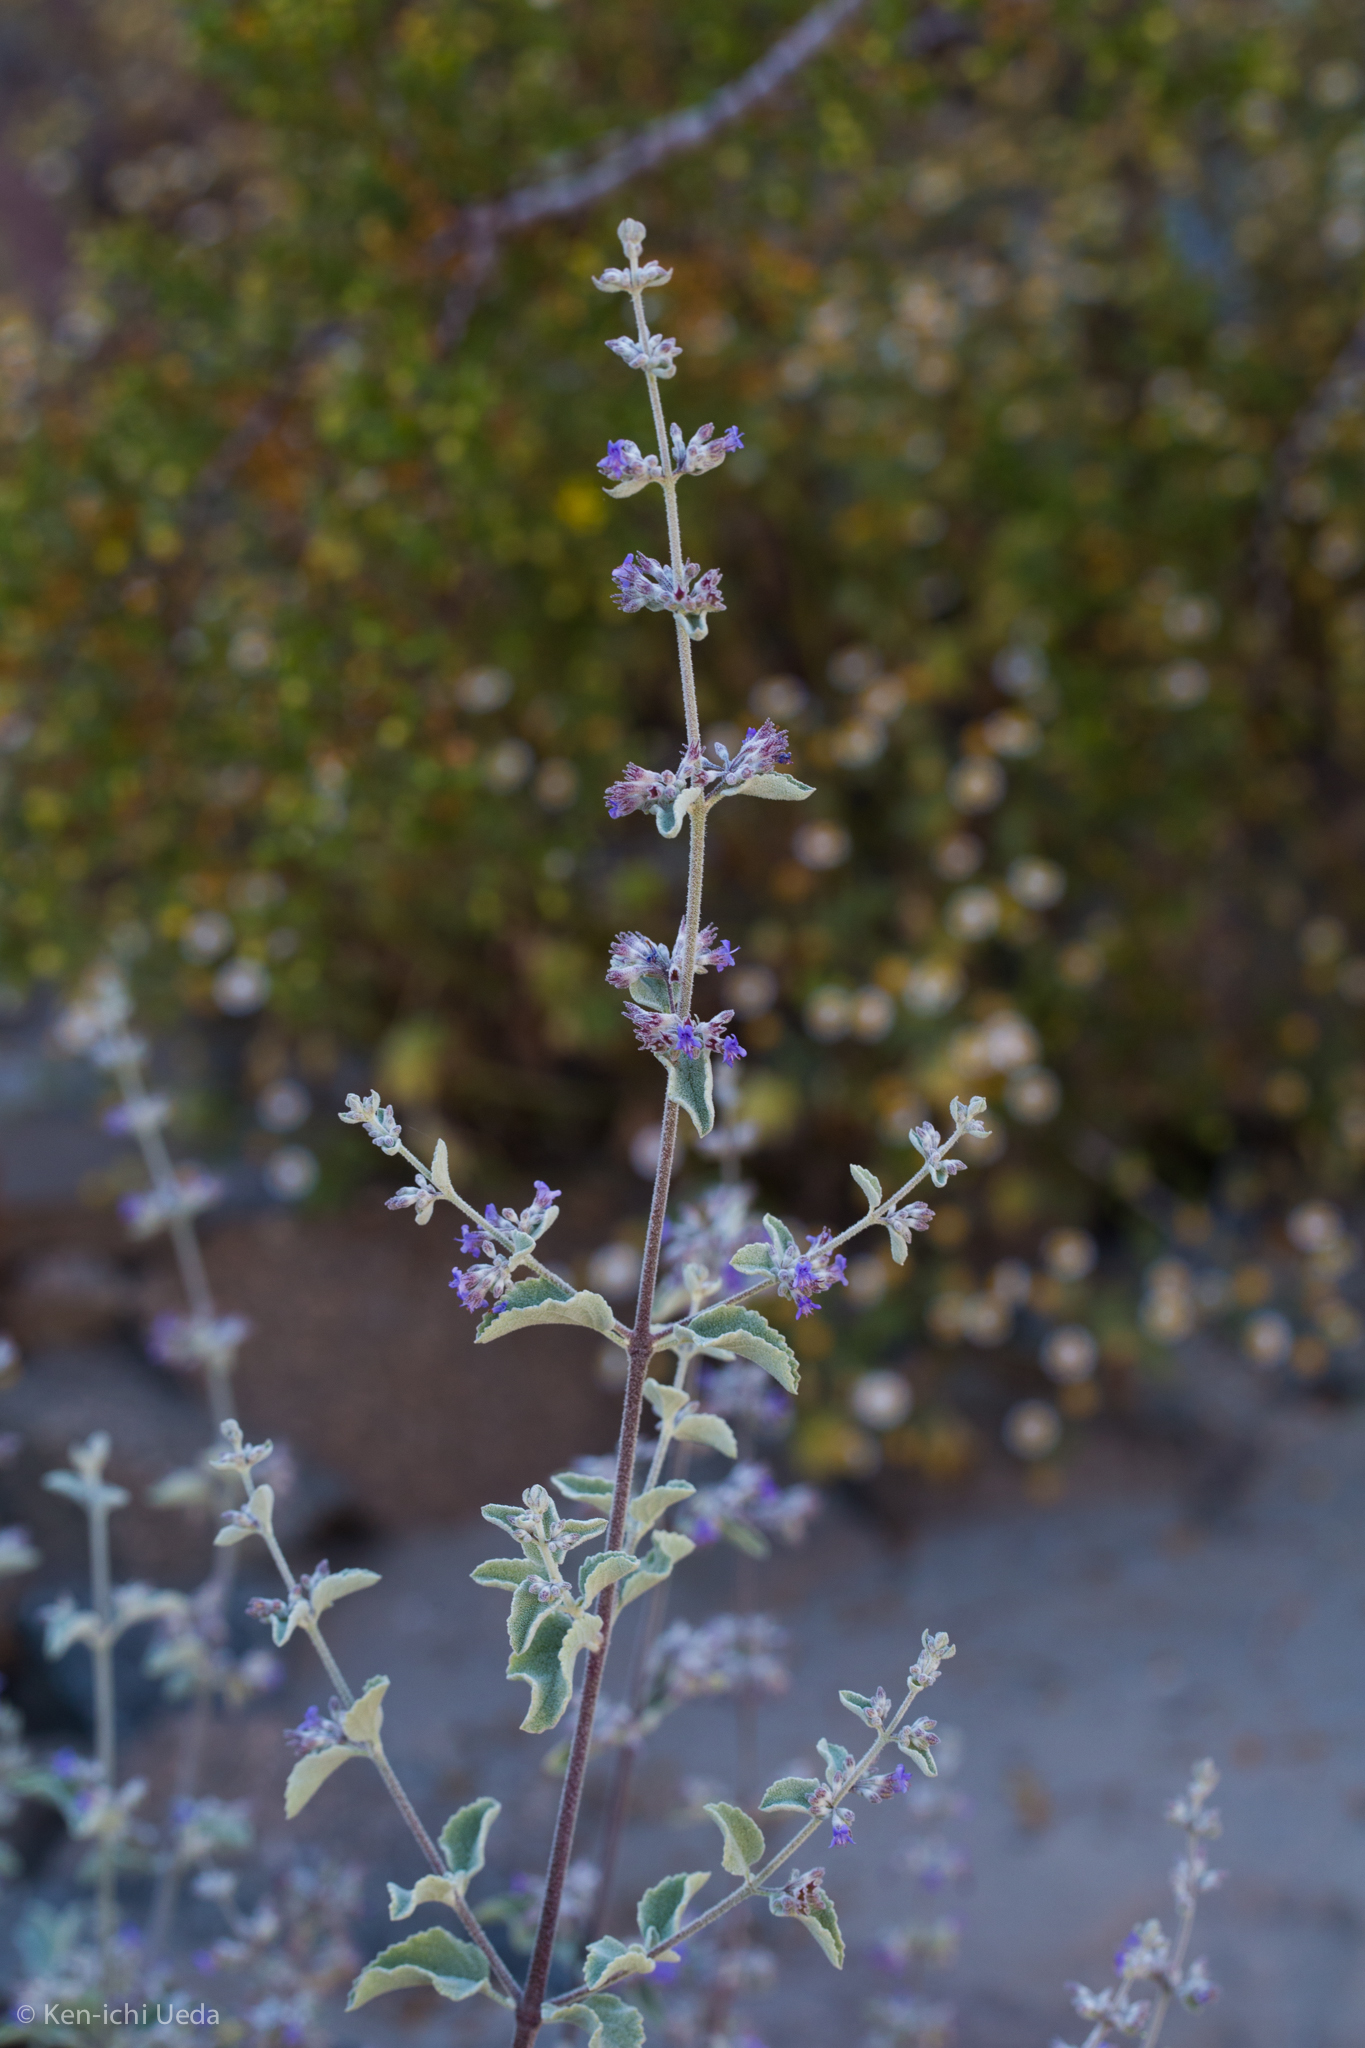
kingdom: Plantae
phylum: Tracheophyta
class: Magnoliopsida
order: Lamiales
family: Lamiaceae
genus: Condea
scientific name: Condea emoryi
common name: Chia
